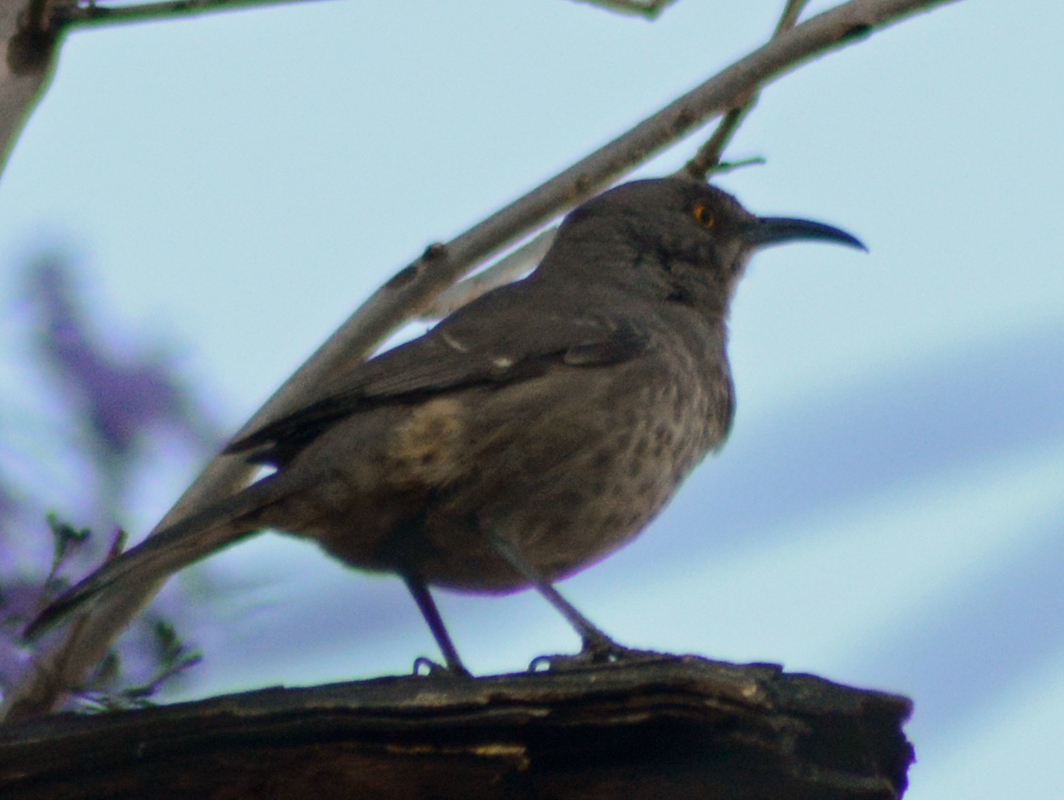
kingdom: Animalia
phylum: Chordata
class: Aves
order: Passeriformes
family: Mimidae
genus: Toxostoma
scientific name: Toxostoma curvirostre
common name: Curve-billed thrasher
